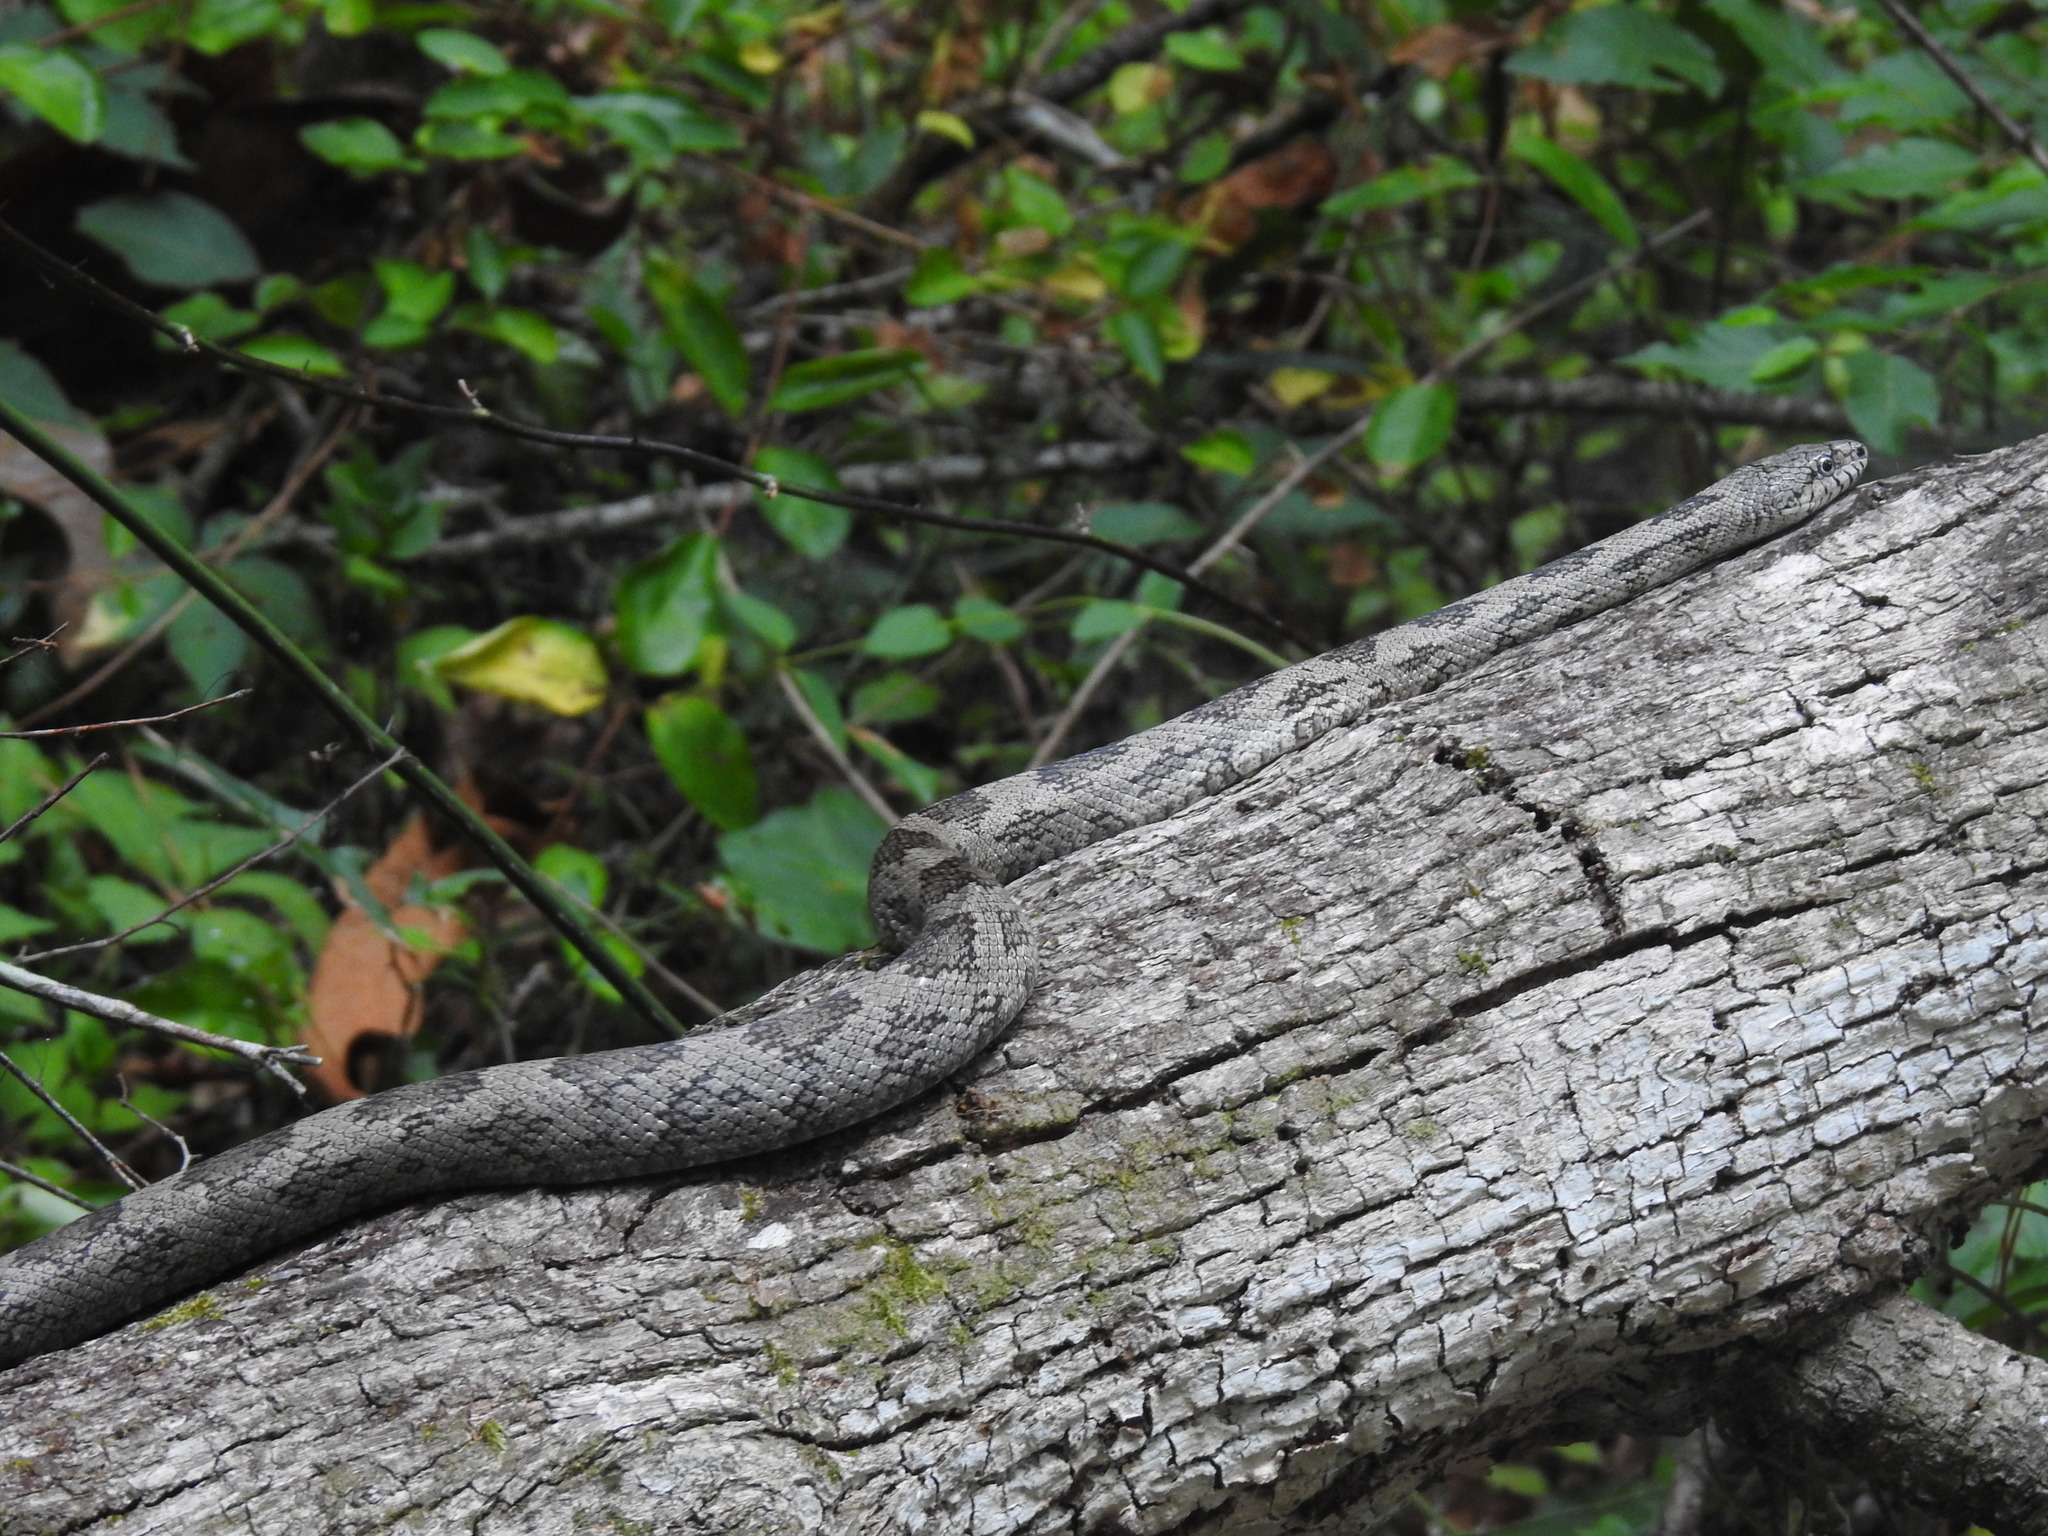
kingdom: Animalia
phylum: Chordata
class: Squamata
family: Colubridae
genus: Pantherophis
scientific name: Pantherophis spiloides
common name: Gray rat snake
